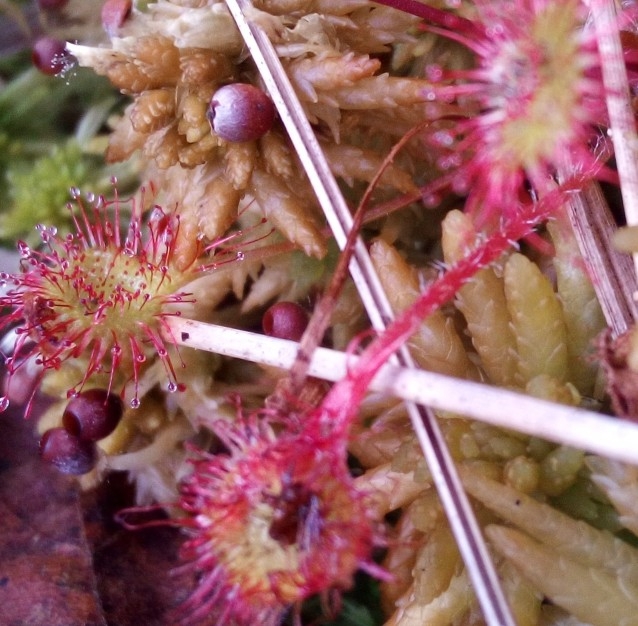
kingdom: Plantae
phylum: Tracheophyta
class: Magnoliopsida
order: Caryophyllales
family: Droseraceae
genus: Drosera
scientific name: Drosera rotundifolia
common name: Round-leaved sundew
